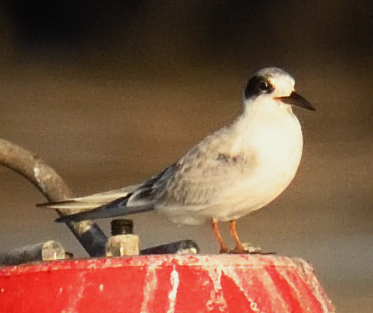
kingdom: Animalia
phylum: Chordata
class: Aves
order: Charadriiformes
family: Laridae
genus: Sterna
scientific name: Sterna forsteri
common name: Forster's tern
